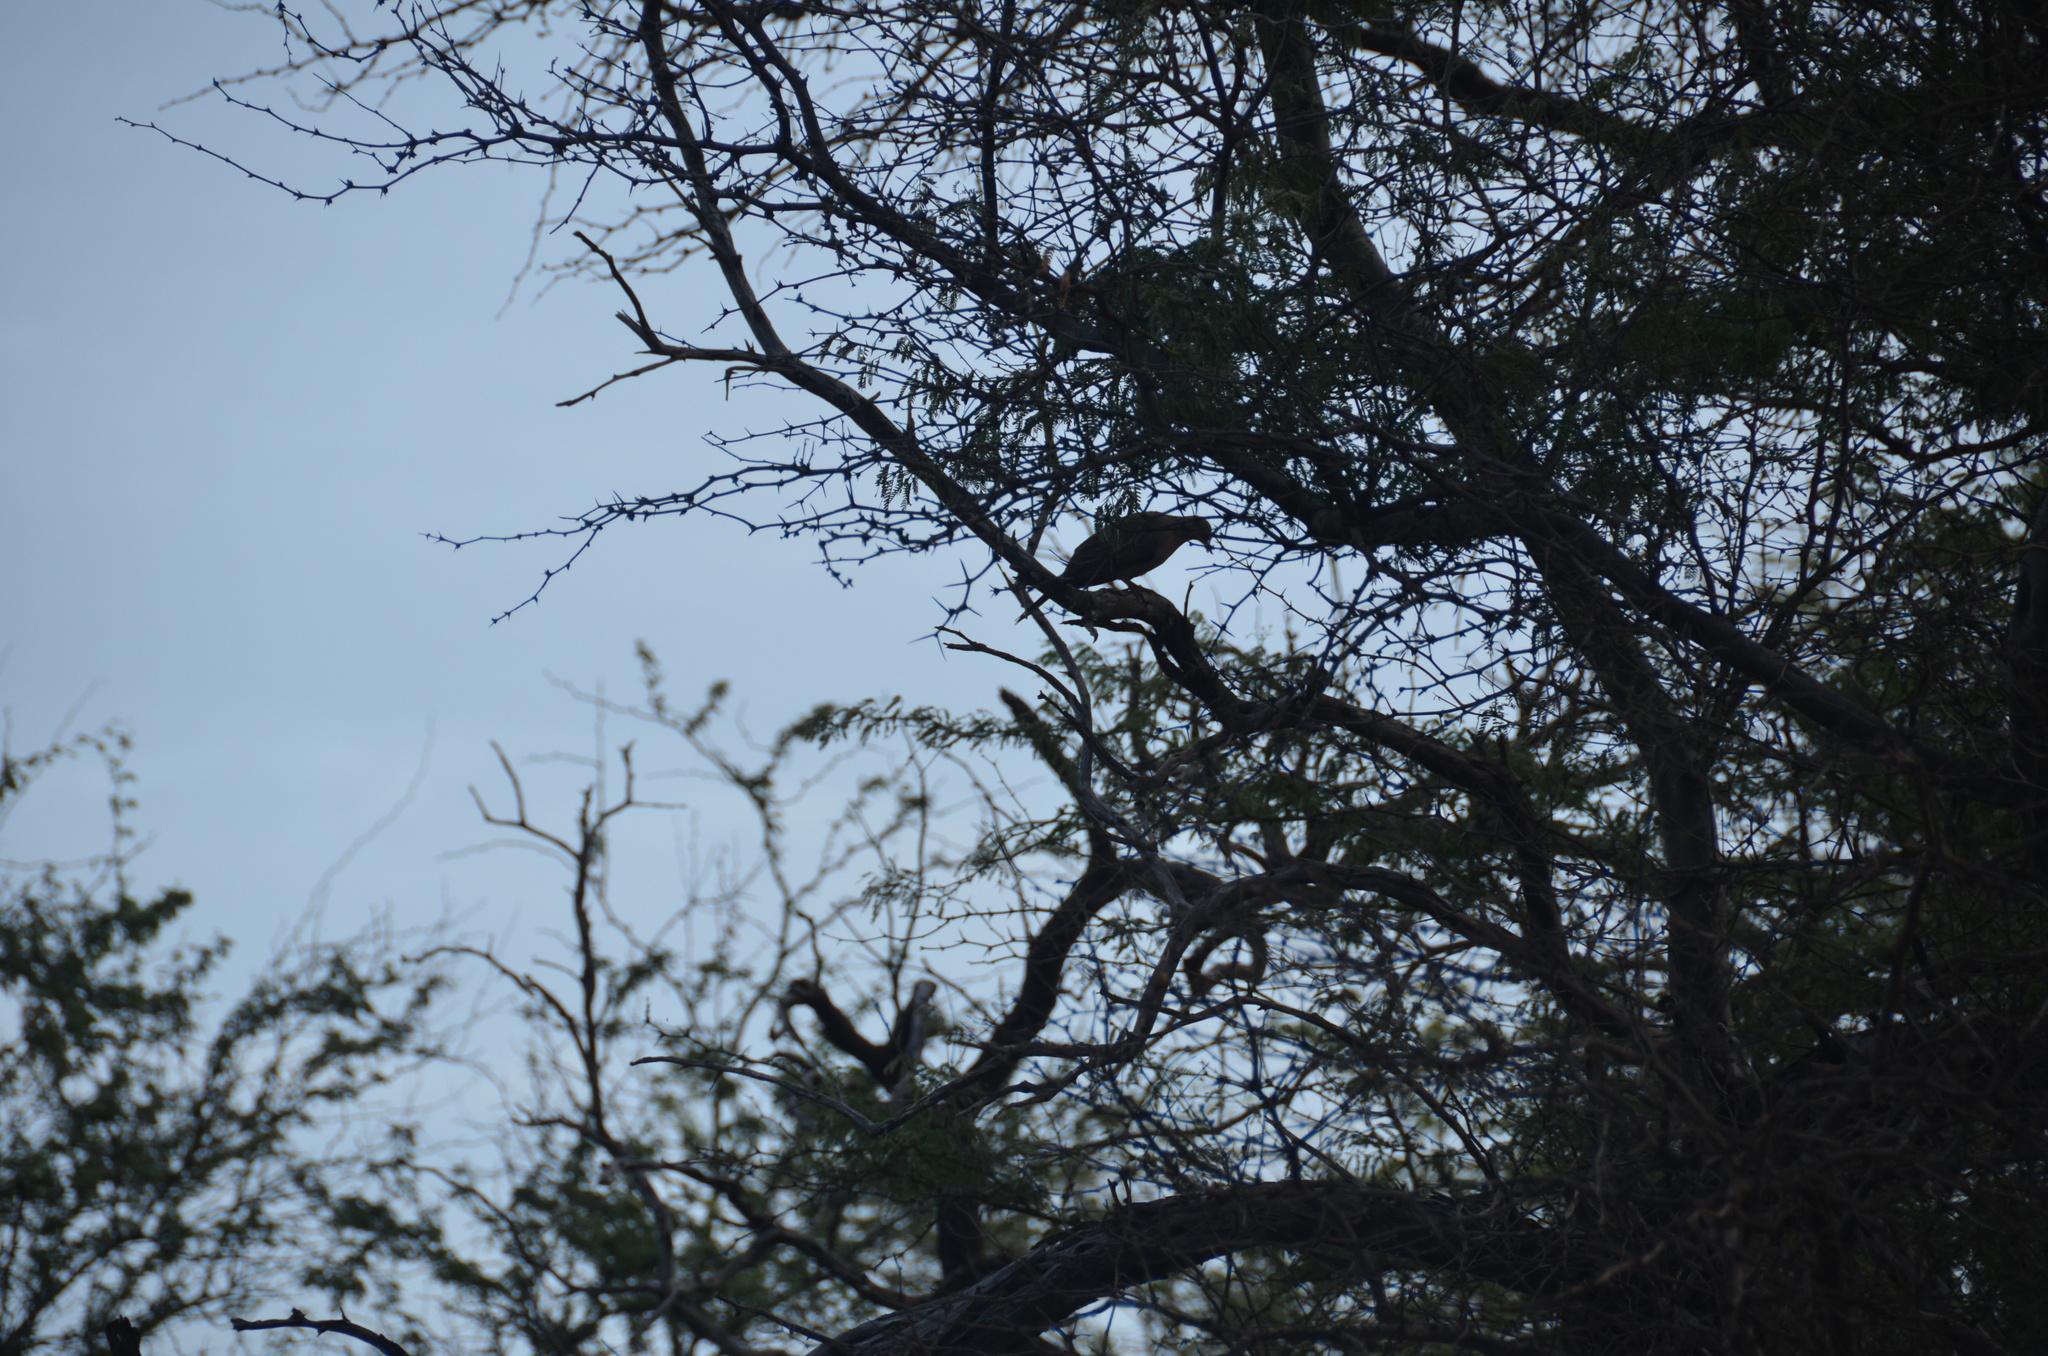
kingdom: Animalia
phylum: Chordata
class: Aves
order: Columbiformes
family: Columbidae
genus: Spilopelia
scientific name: Spilopelia chinensis
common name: Spotted dove
